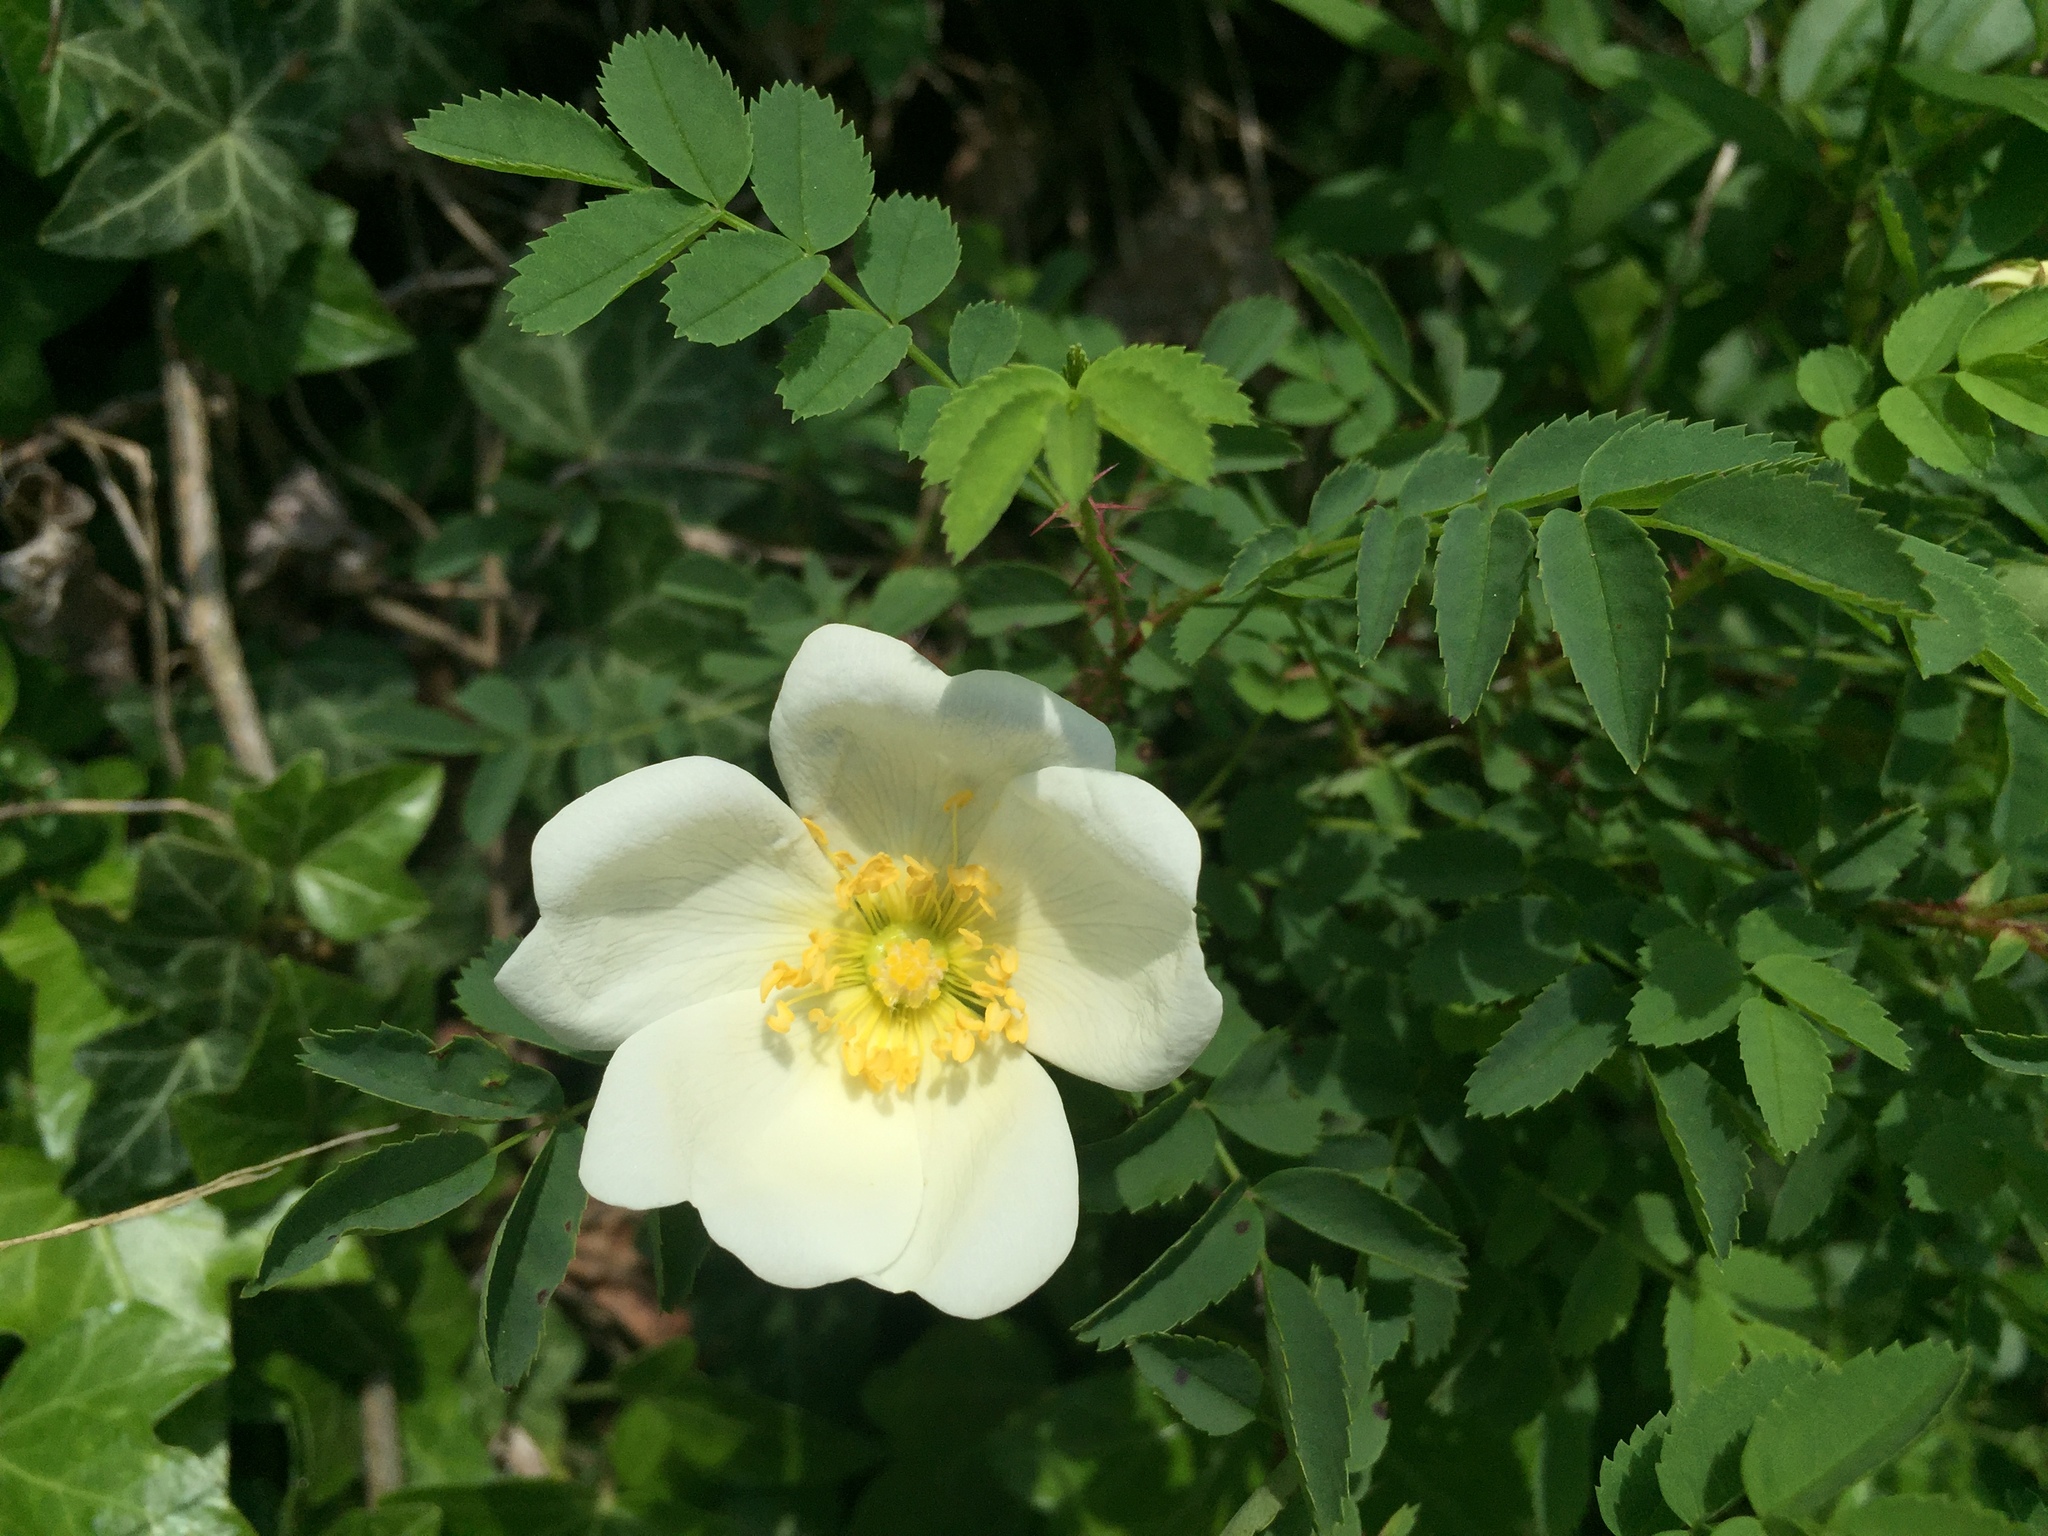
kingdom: Plantae
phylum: Tracheophyta
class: Magnoliopsida
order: Rosales
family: Rosaceae
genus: Rosa
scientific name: Rosa spinosissima
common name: Burnet rose
